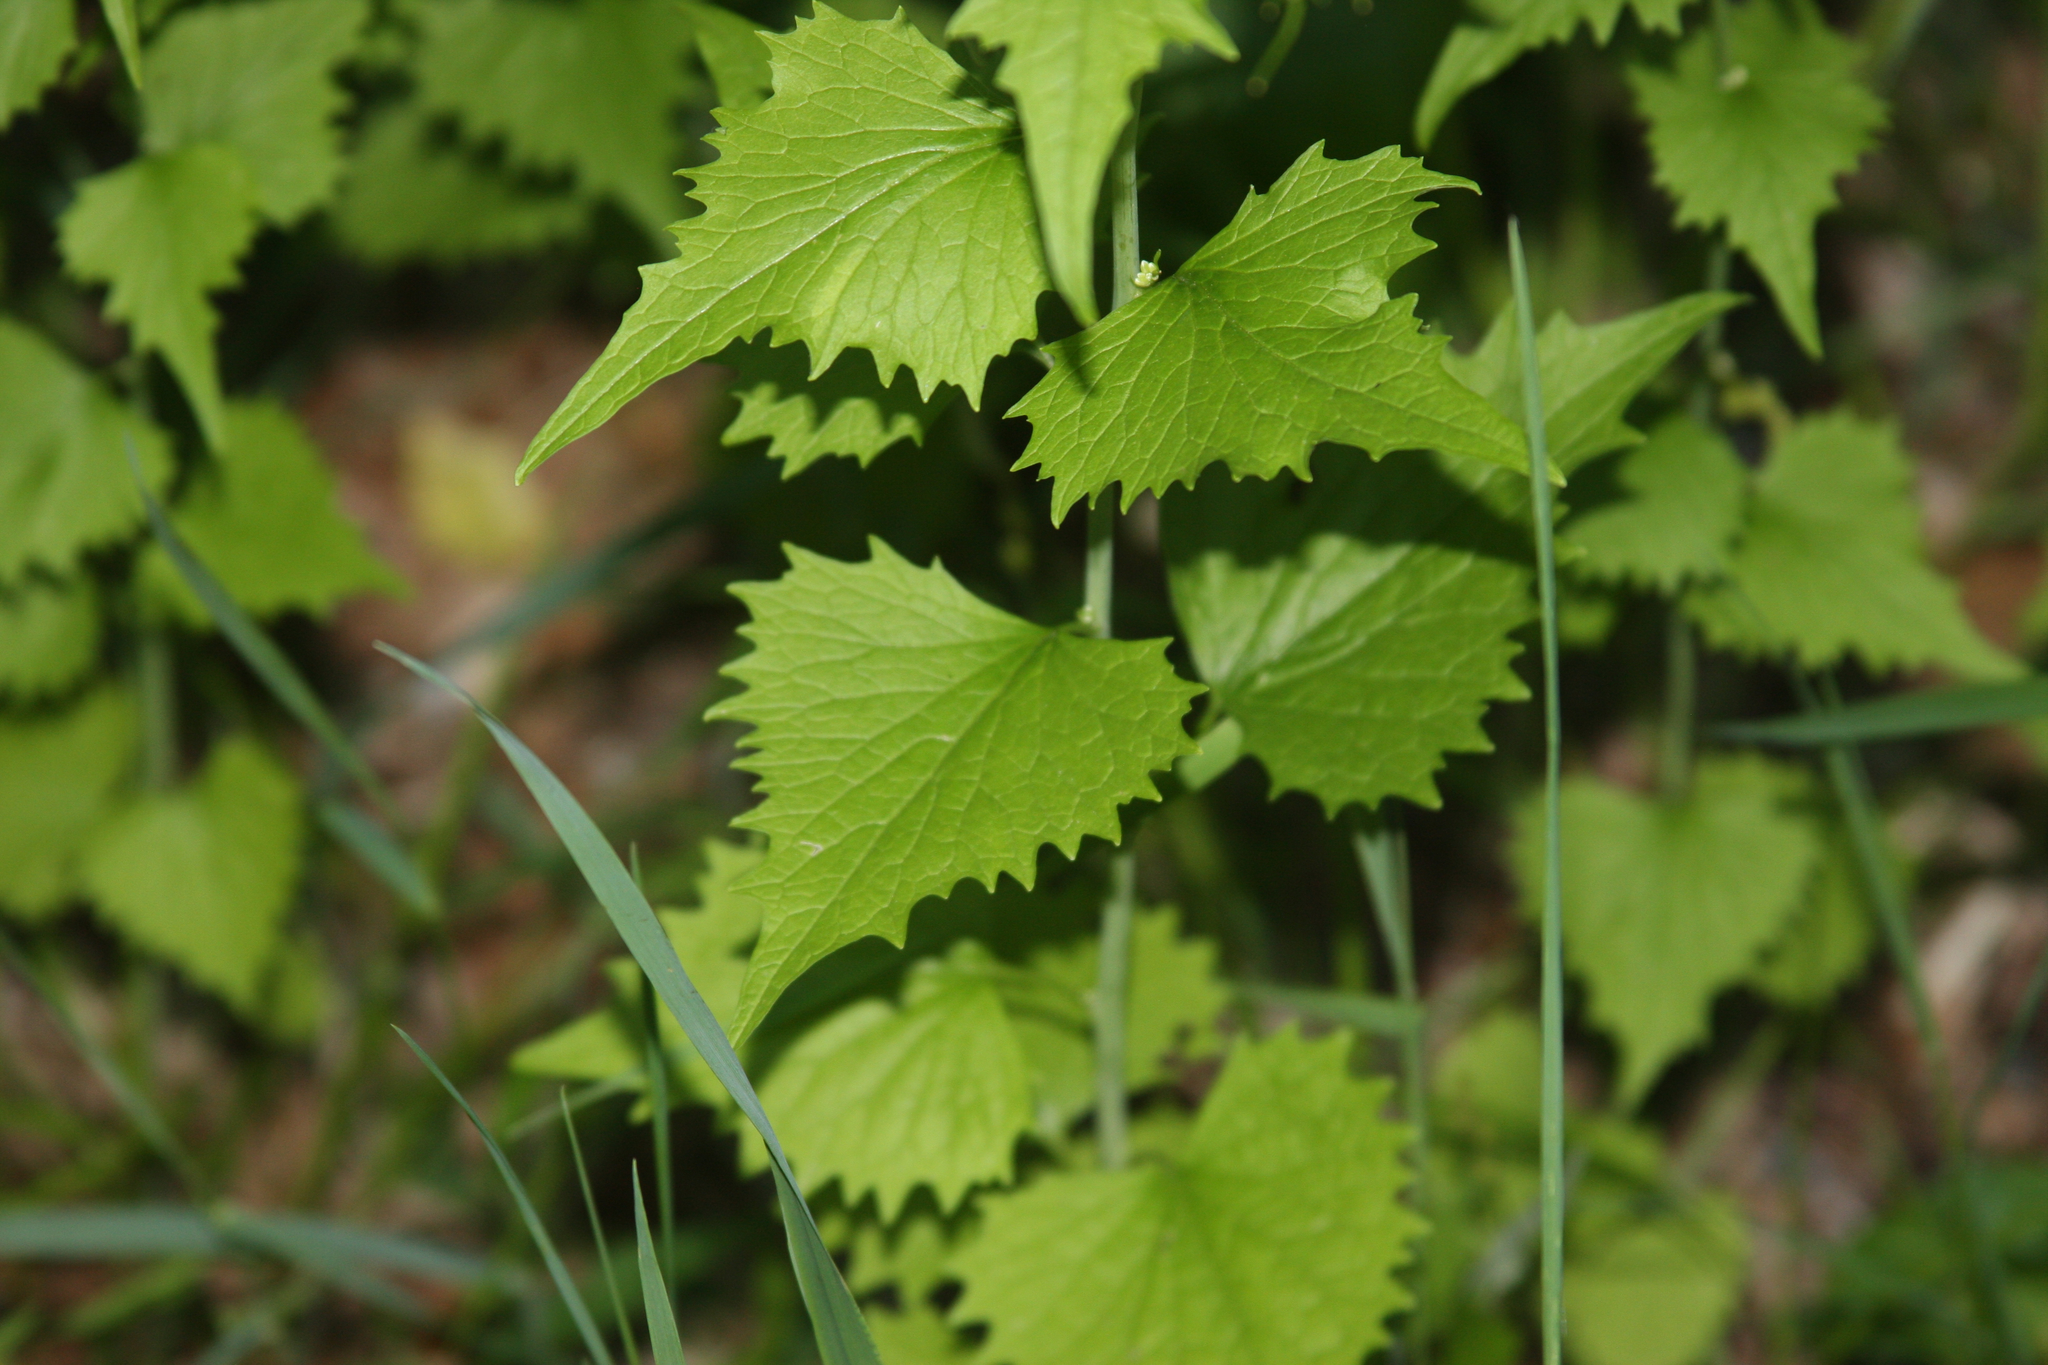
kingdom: Plantae
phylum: Tracheophyta
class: Magnoliopsida
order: Brassicales
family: Brassicaceae
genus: Alliaria
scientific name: Alliaria petiolata
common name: Garlic mustard
